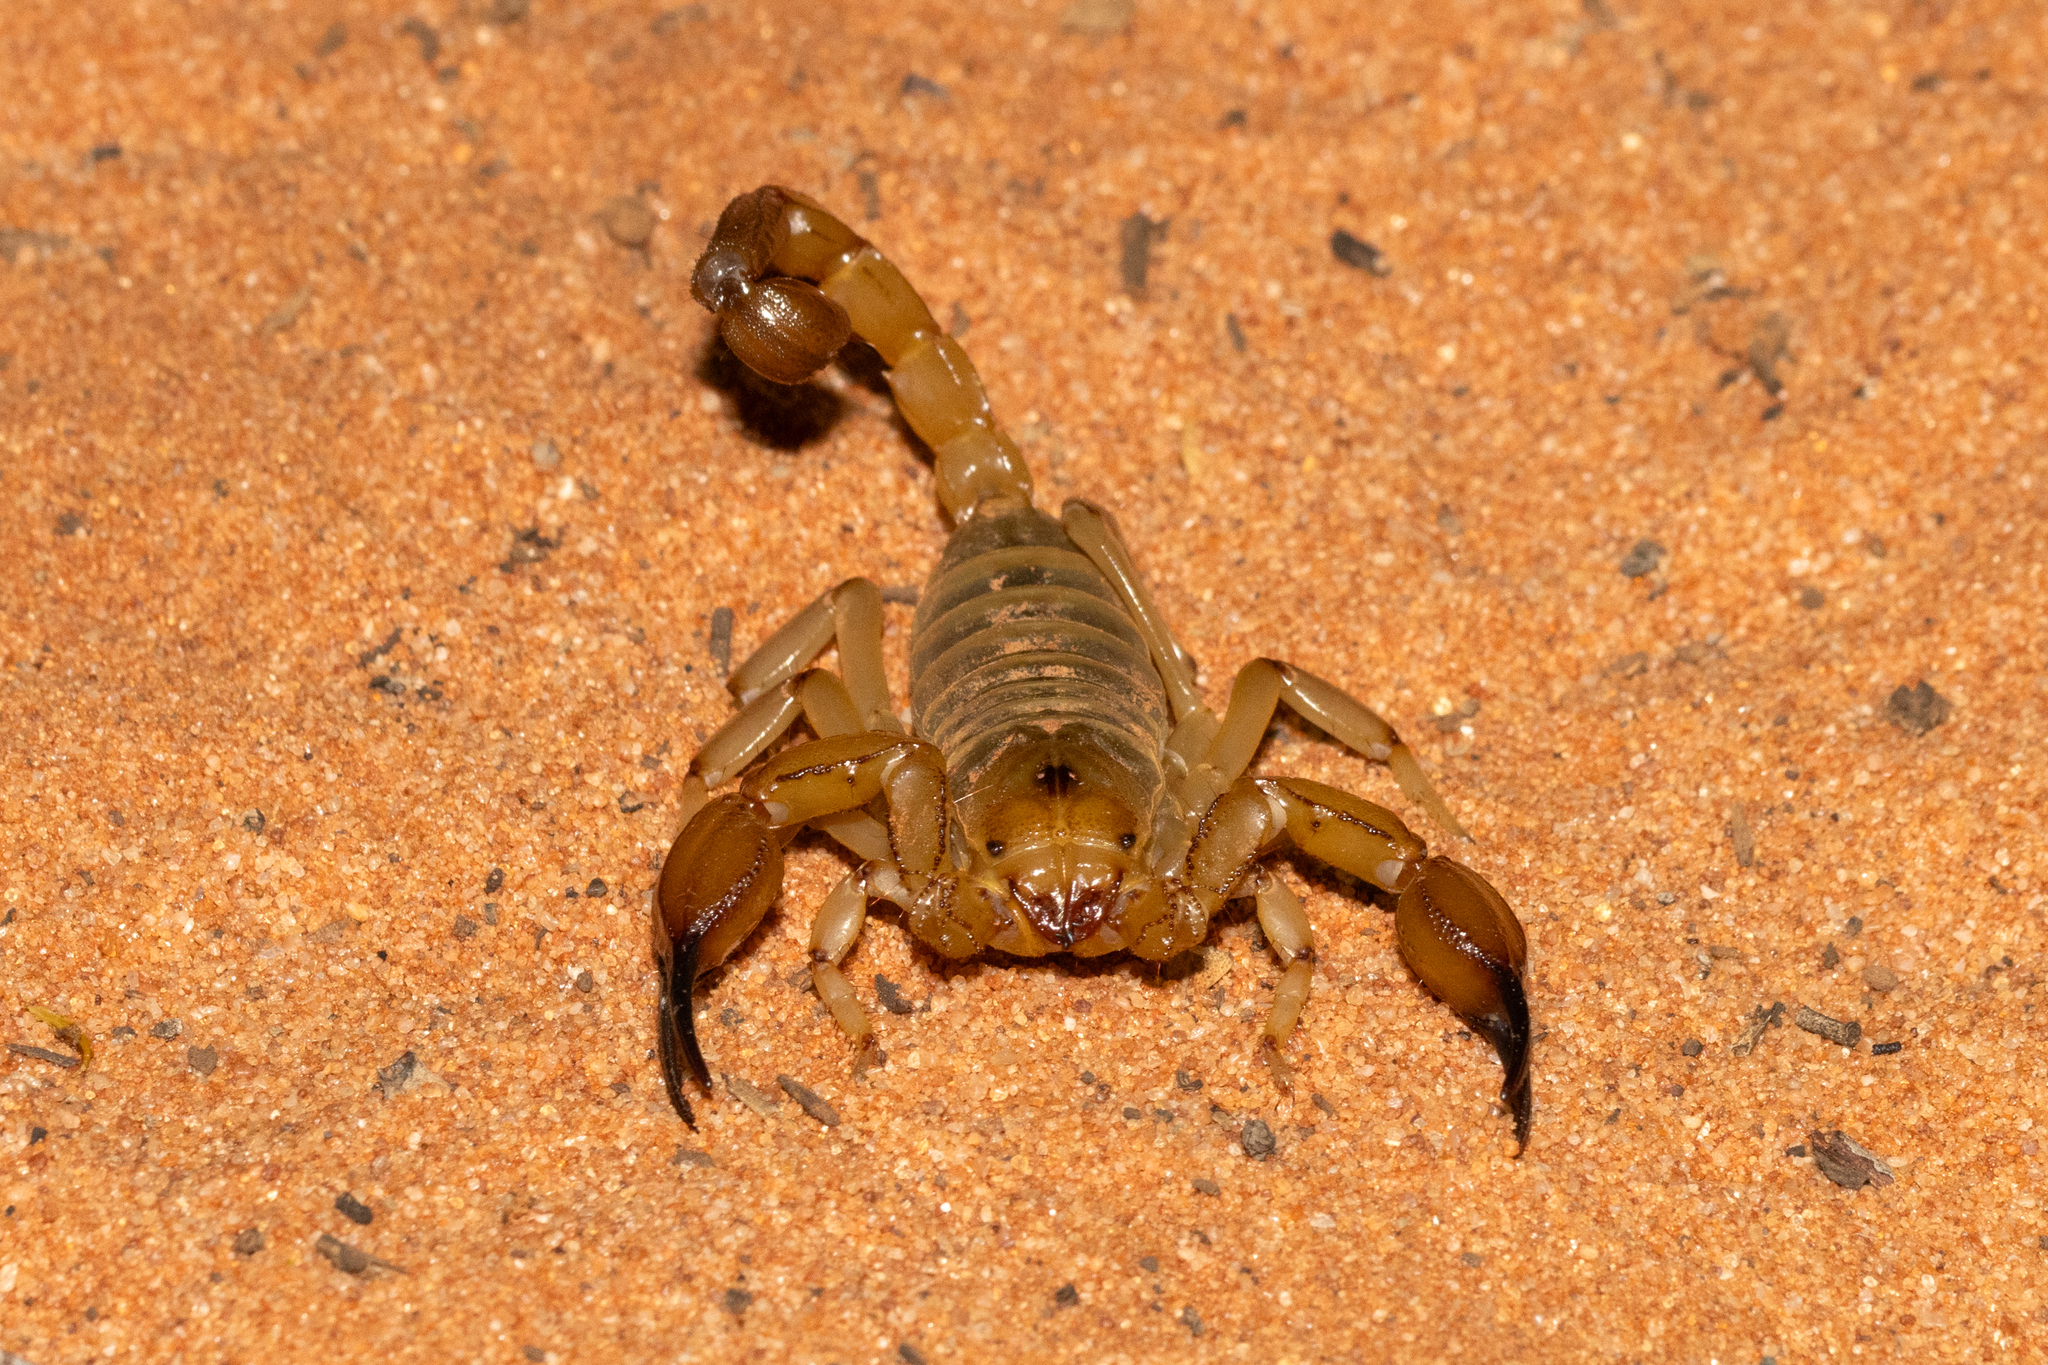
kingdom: Animalia
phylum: Arthropoda
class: Arachnida
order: Scorpiones
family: Scorpionidae
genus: Urodacus
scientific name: Urodacus yaschenkoi
